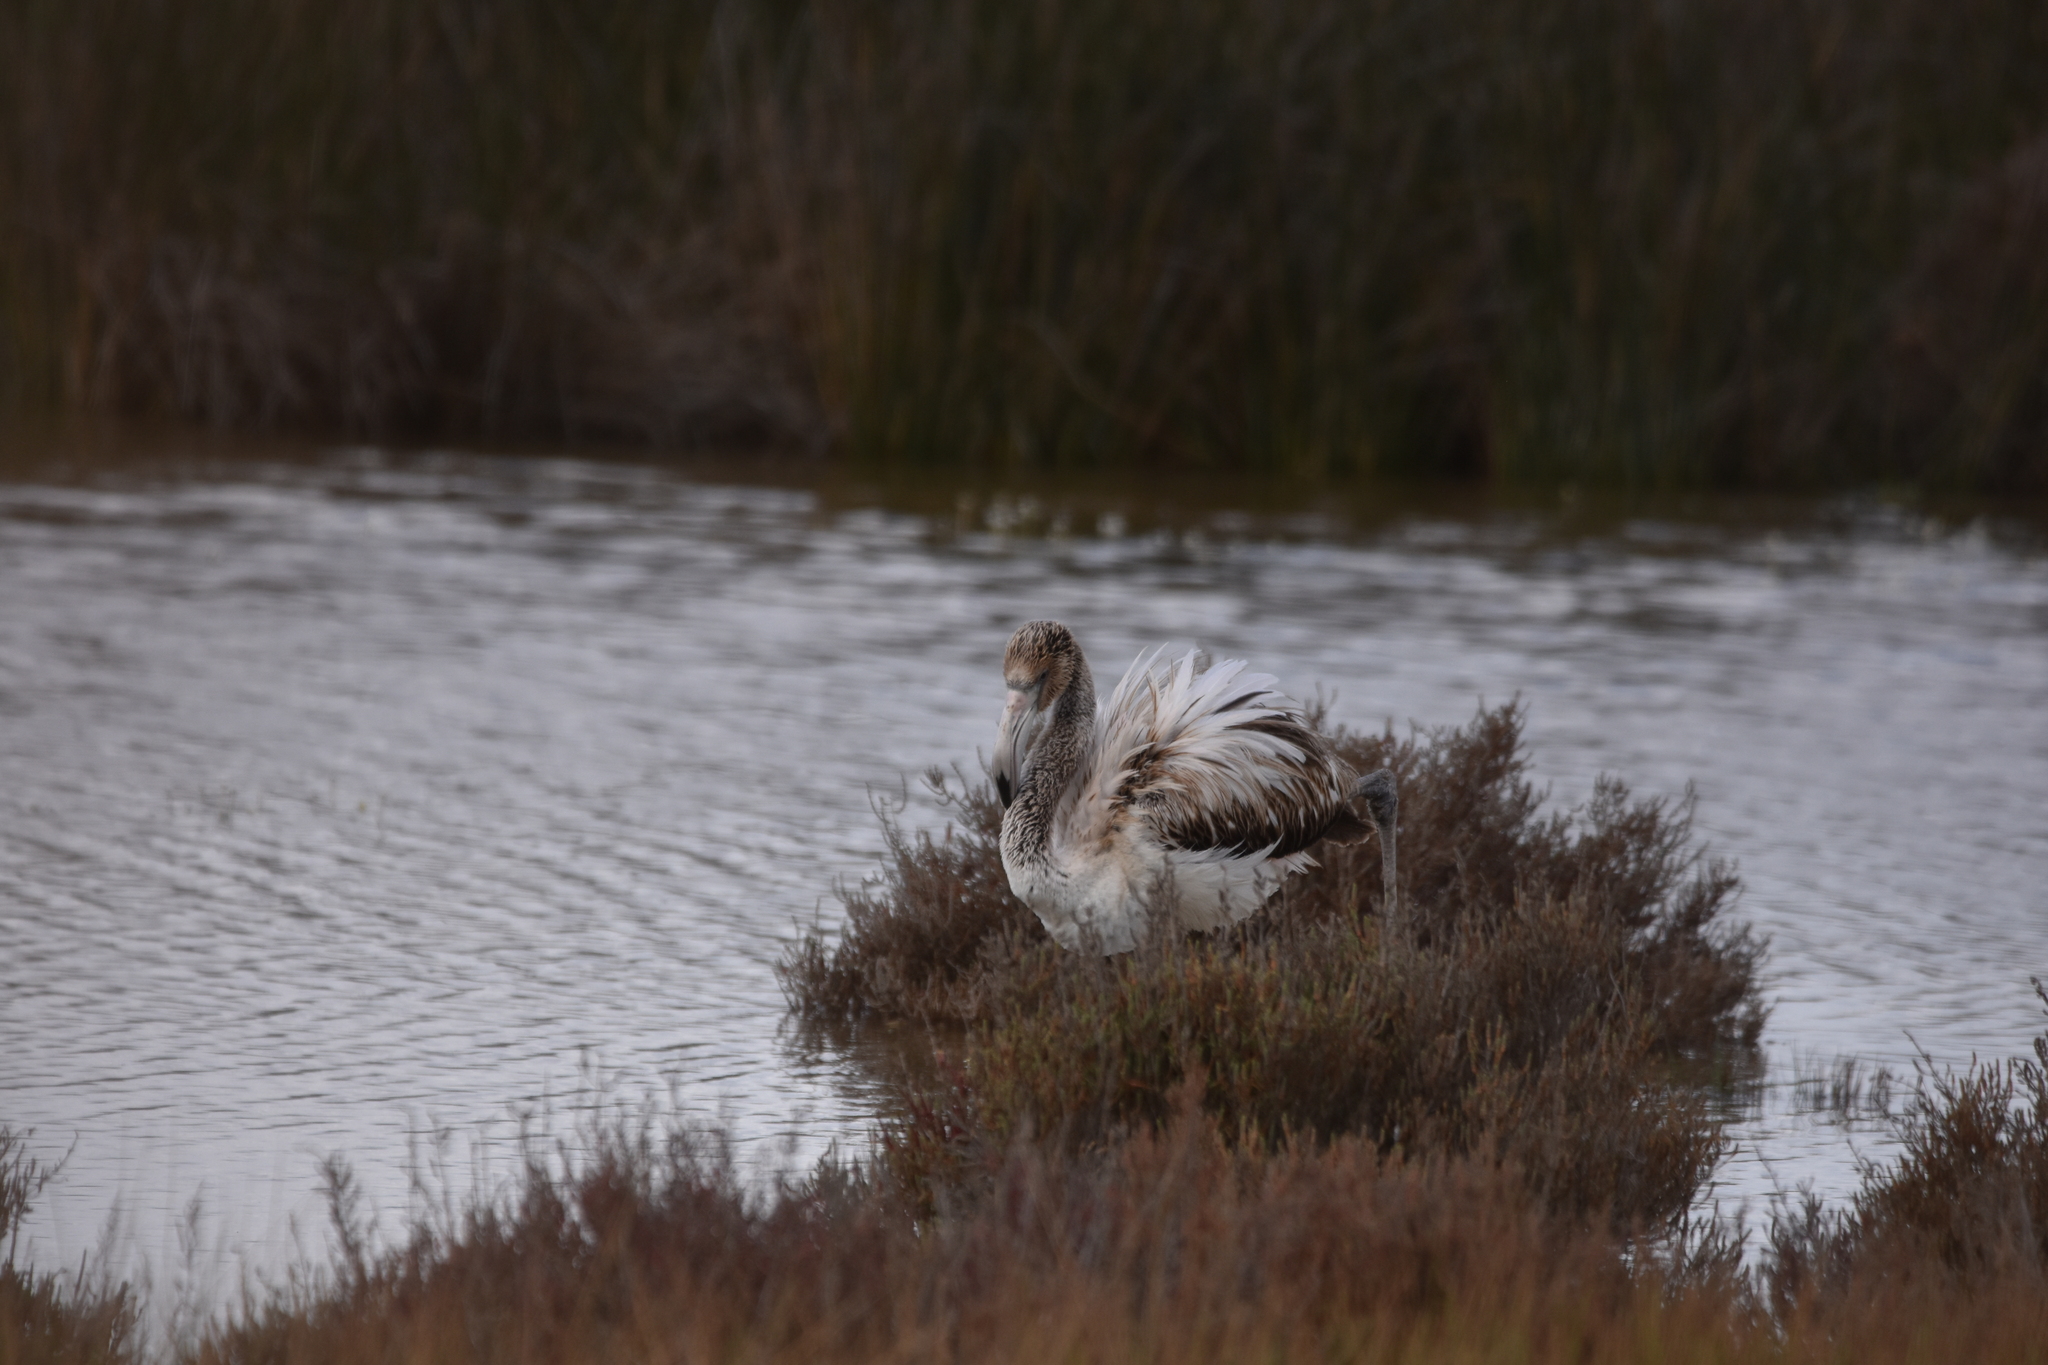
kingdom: Animalia
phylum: Chordata
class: Aves
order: Phoenicopteriformes
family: Phoenicopteridae
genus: Phoenicopterus
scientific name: Phoenicopterus roseus
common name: Greater flamingo
